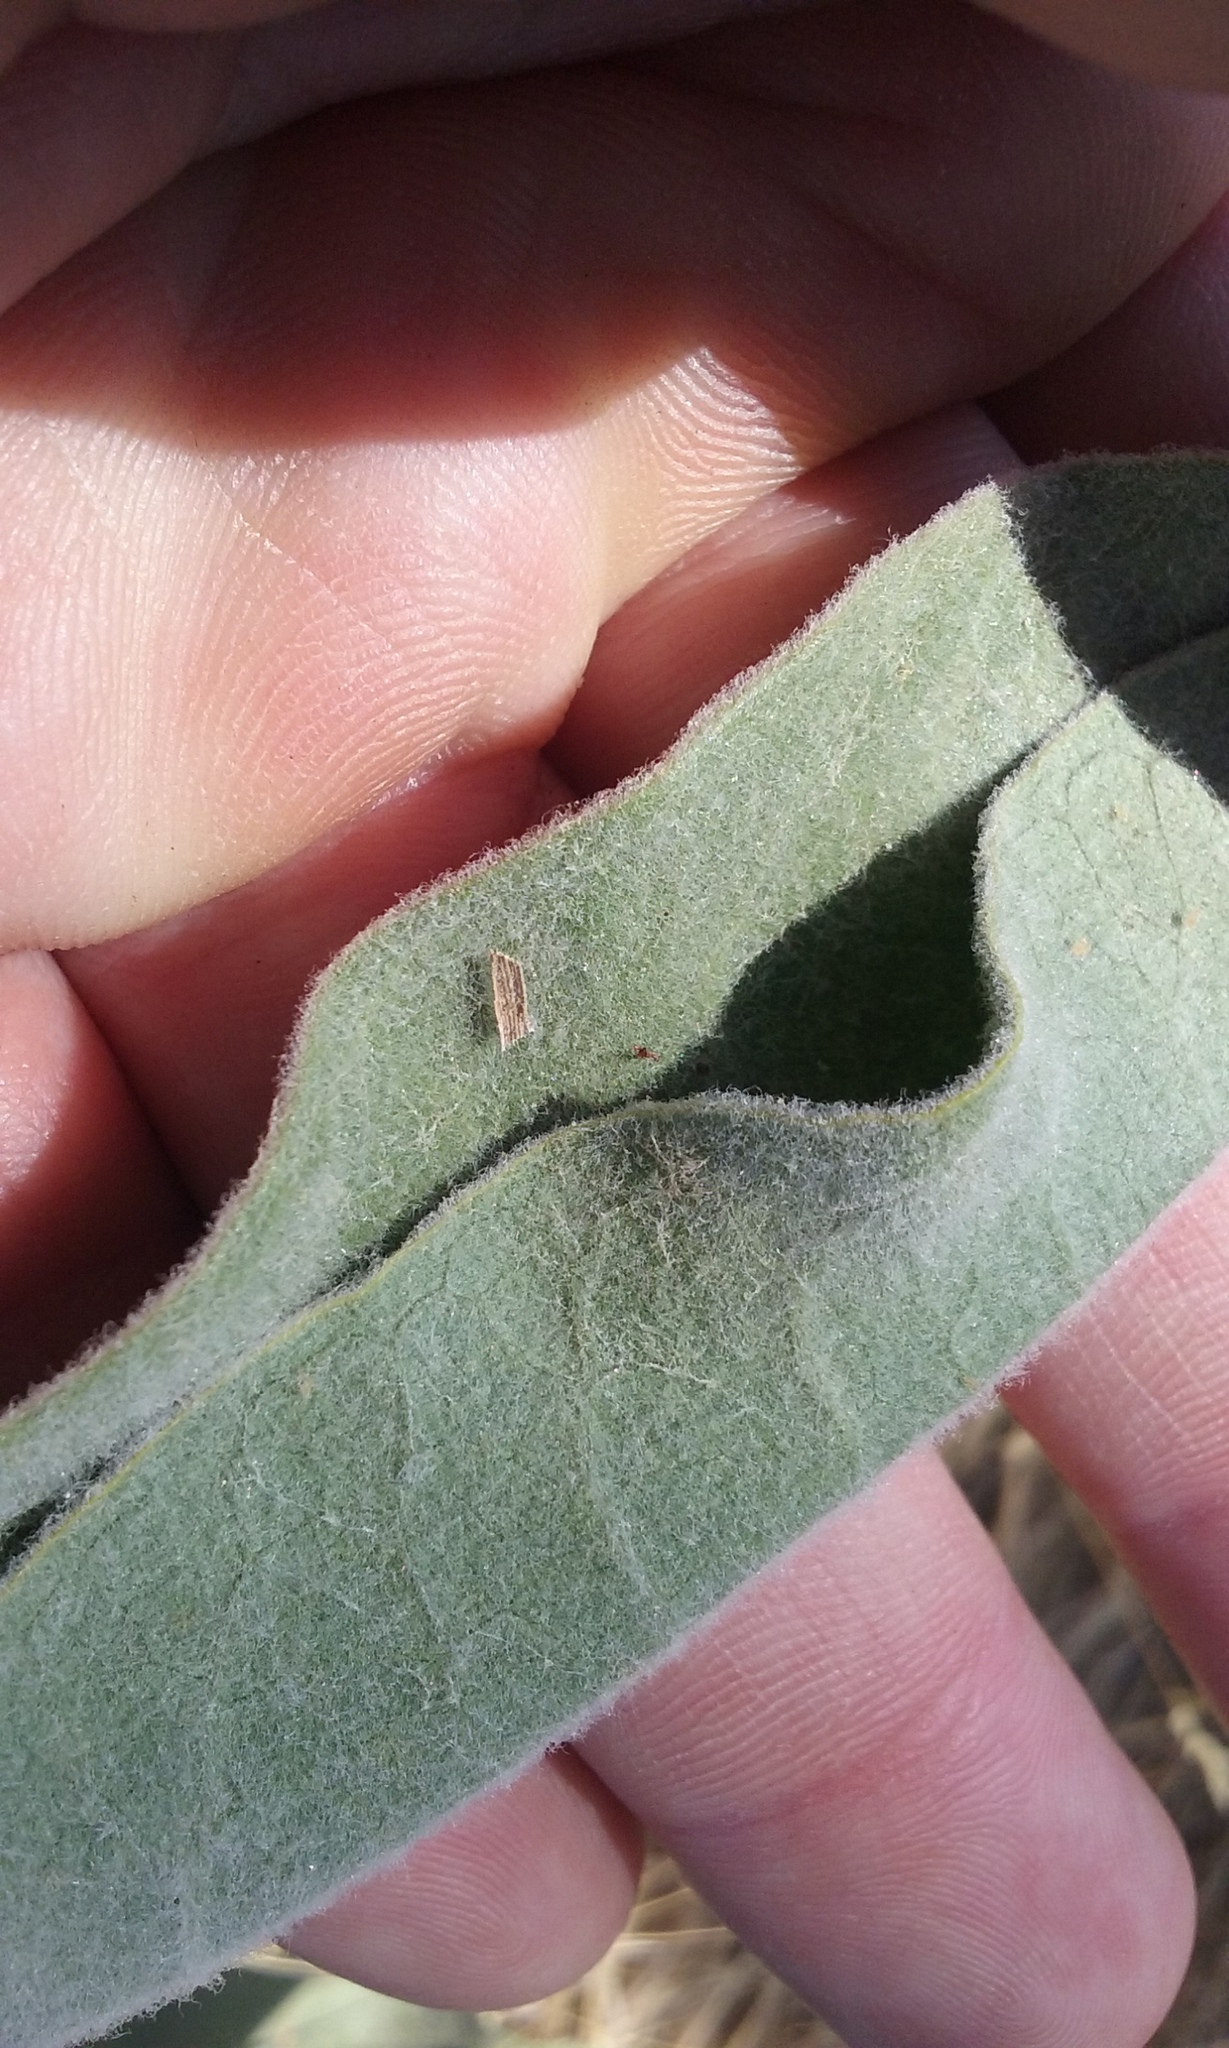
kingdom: Plantae
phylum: Tracheophyta
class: Magnoliopsida
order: Gentianales
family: Apocynaceae
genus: Asclepias
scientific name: Asclepias eriocarpa
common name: Indian milkweed
